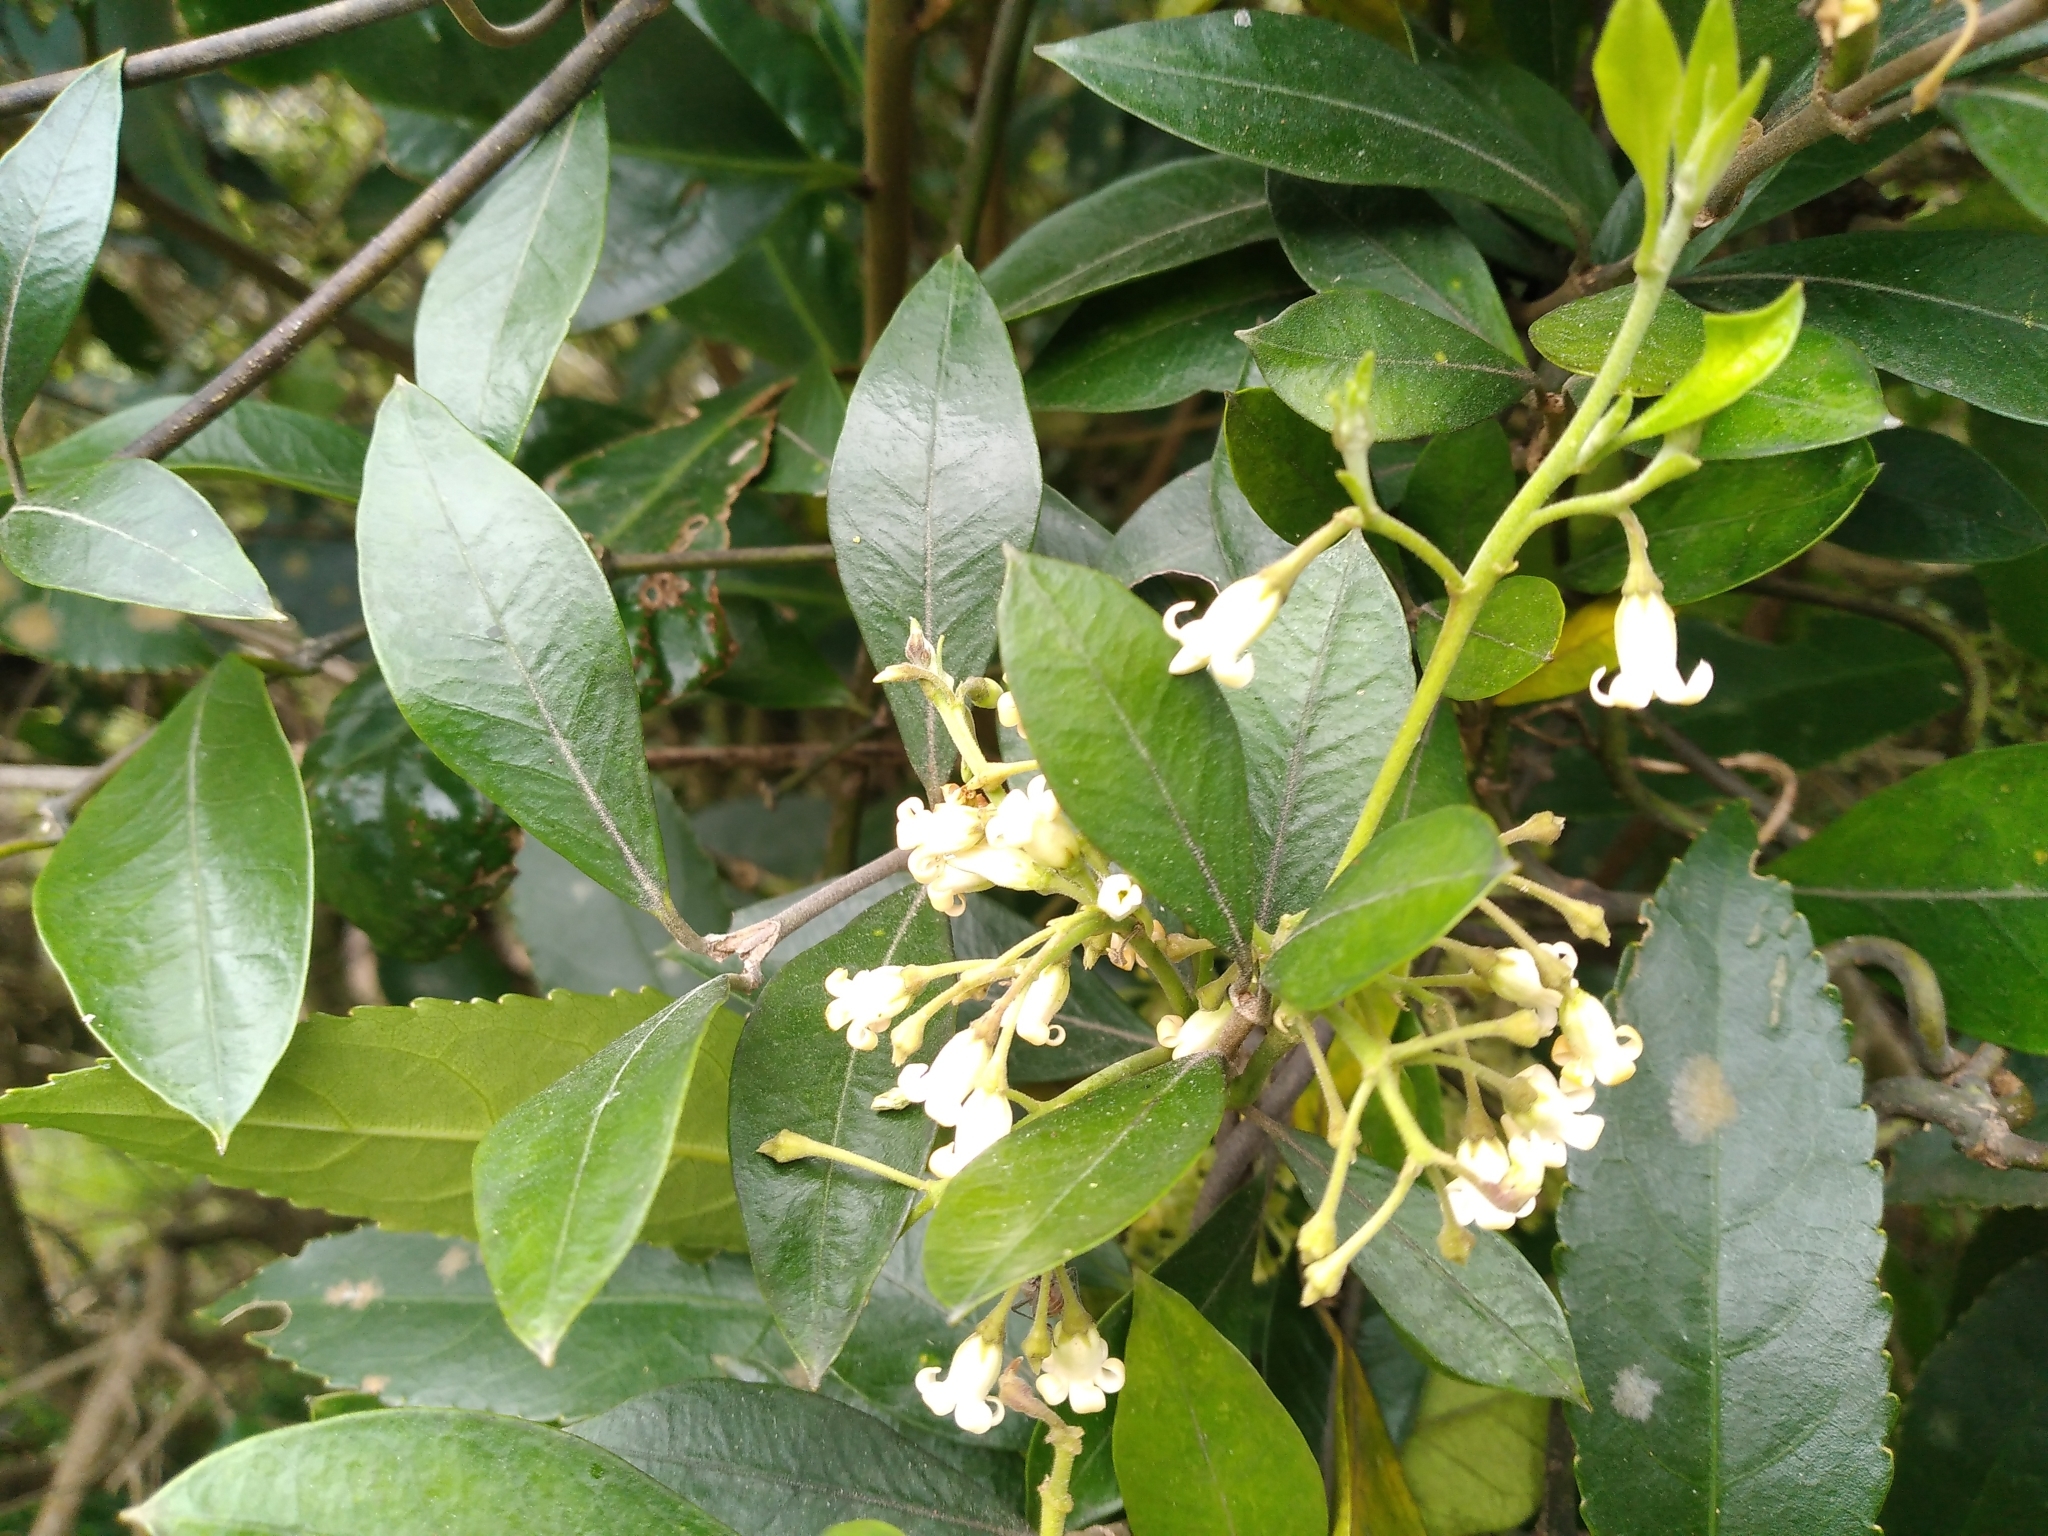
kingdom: Plantae
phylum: Tracheophyta
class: Magnoliopsida
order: Gentianales
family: Apocynaceae
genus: Parsonsia
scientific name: Parsonsia heterophylla
